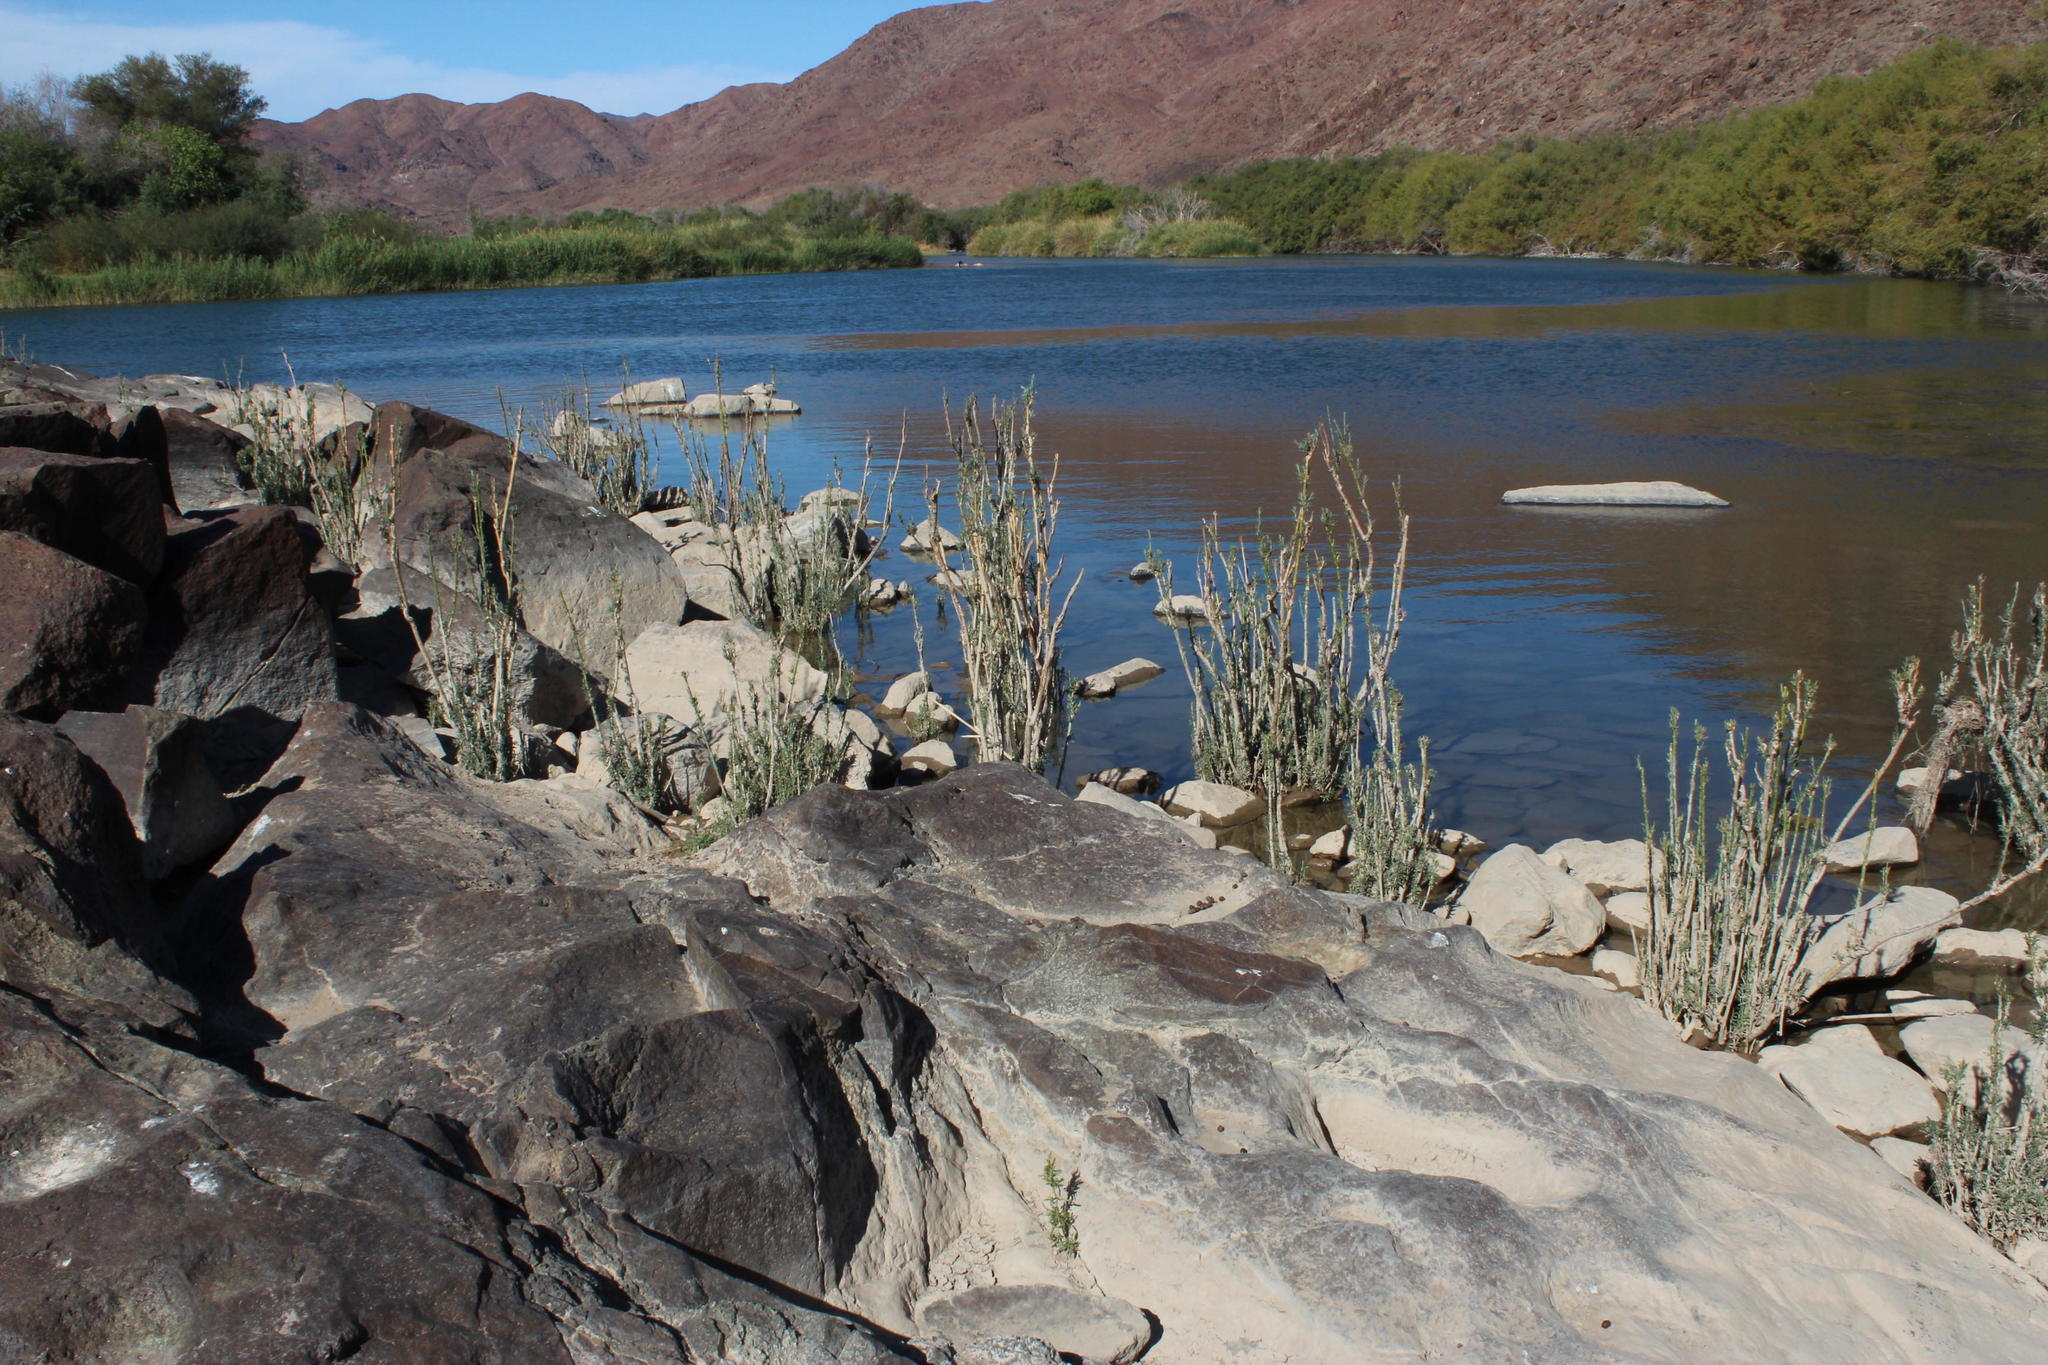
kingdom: Plantae
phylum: Tracheophyta
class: Magnoliopsida
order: Lamiales
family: Scrophulariaceae
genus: Buddleja
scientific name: Buddleja virgata
